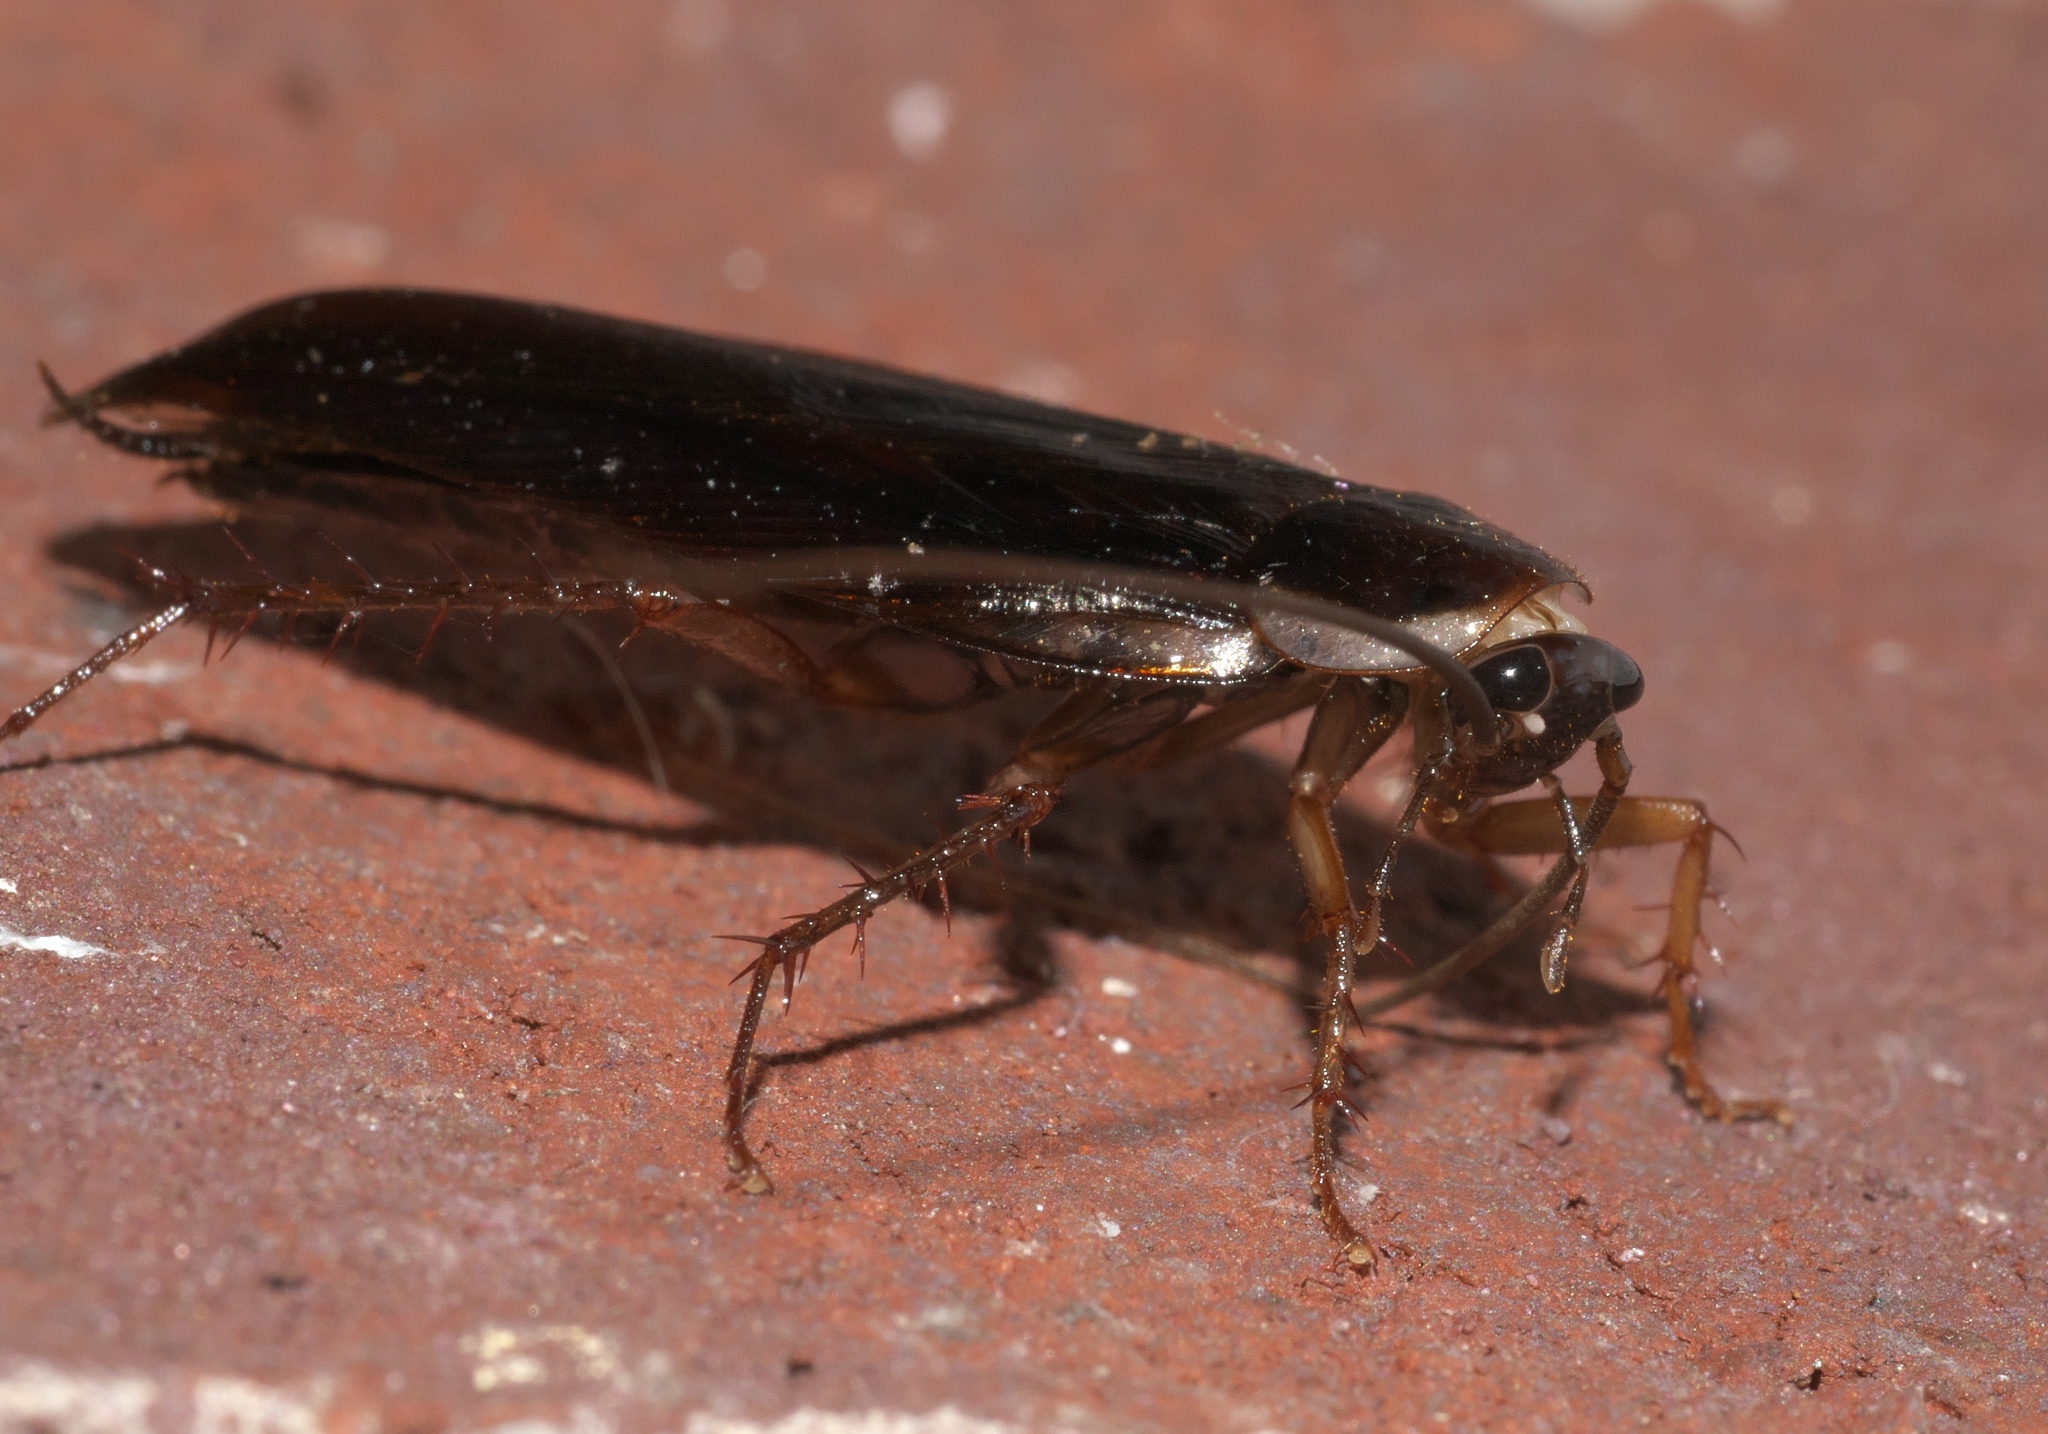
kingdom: Animalia
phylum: Arthropoda
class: Insecta
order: Blattodea
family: Ectobiidae
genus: Parcoblatta
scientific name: Parcoblatta pennsylvanica
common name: Pennsylvanian wood cockroach
